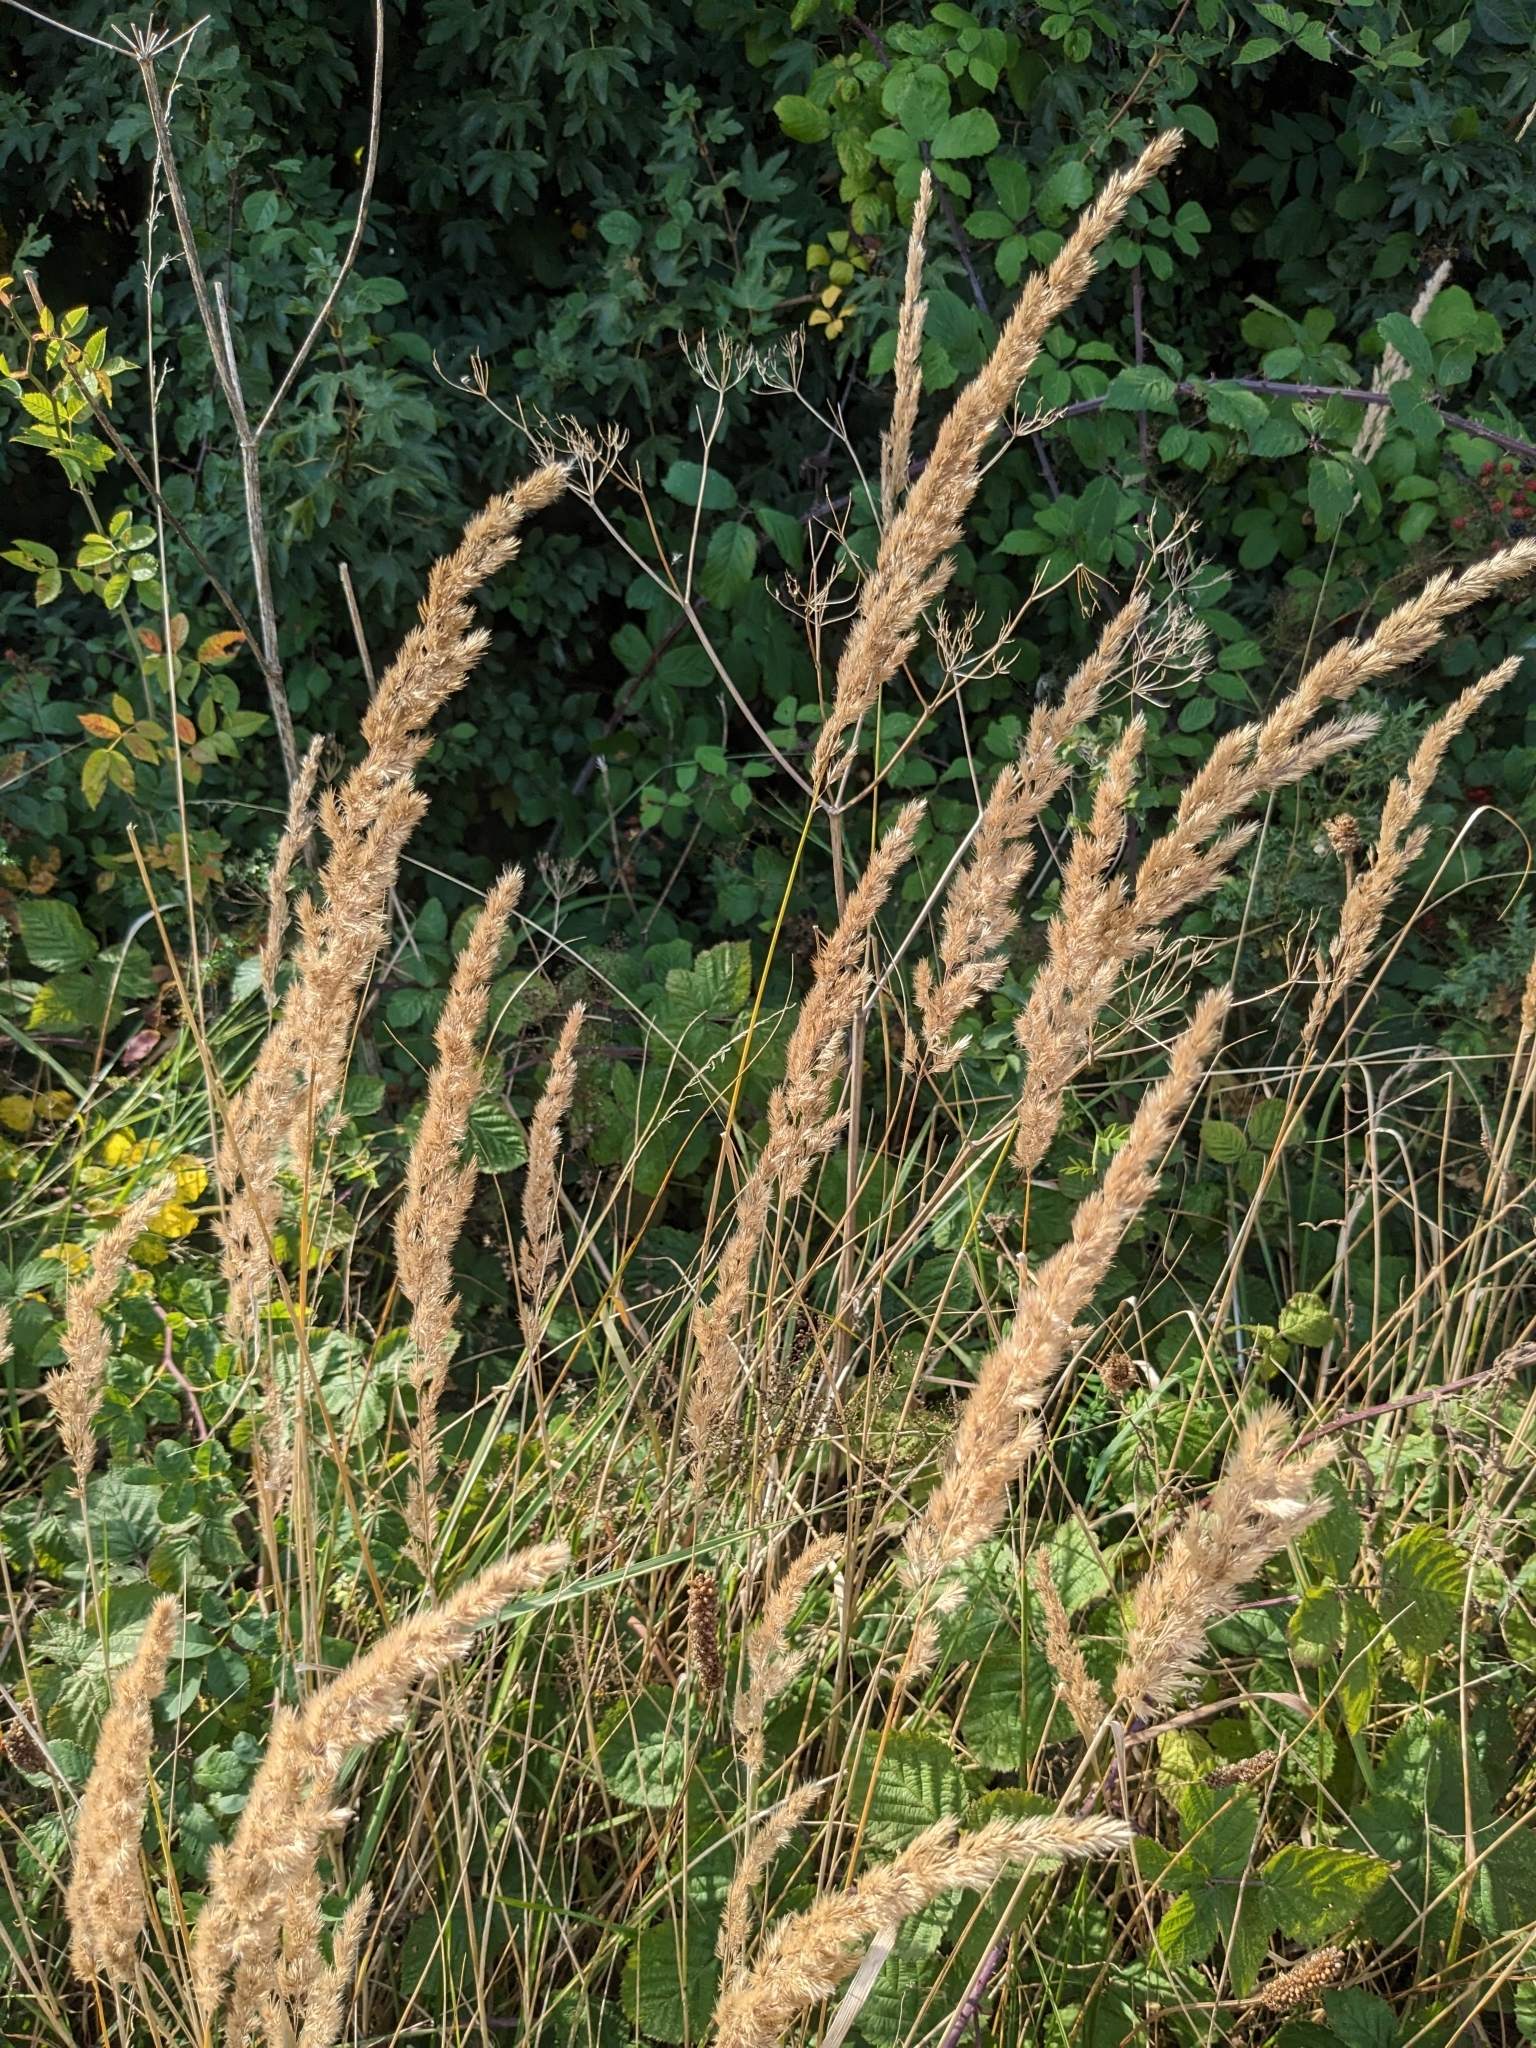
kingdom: Plantae
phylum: Tracheophyta
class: Liliopsida
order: Poales
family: Poaceae
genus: Calamagrostis
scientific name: Calamagrostis epigejos
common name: Wood small-reed
